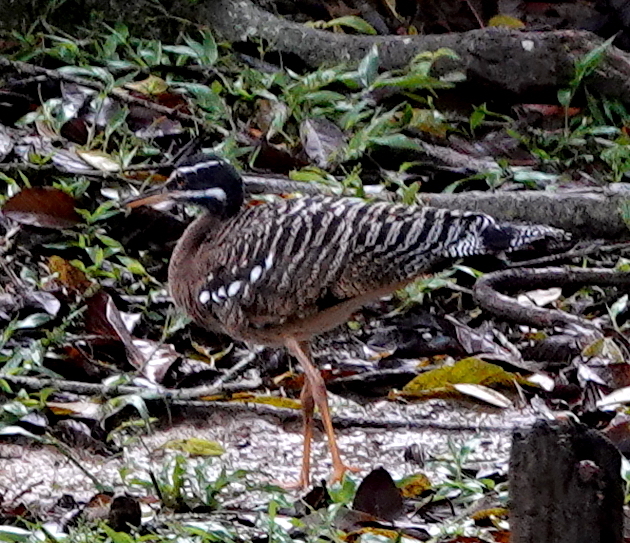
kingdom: Animalia
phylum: Chordata
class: Aves
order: Eurypygiformes
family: Eurypygidae
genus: Eurypyga
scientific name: Eurypyga helias
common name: Sunbittern
